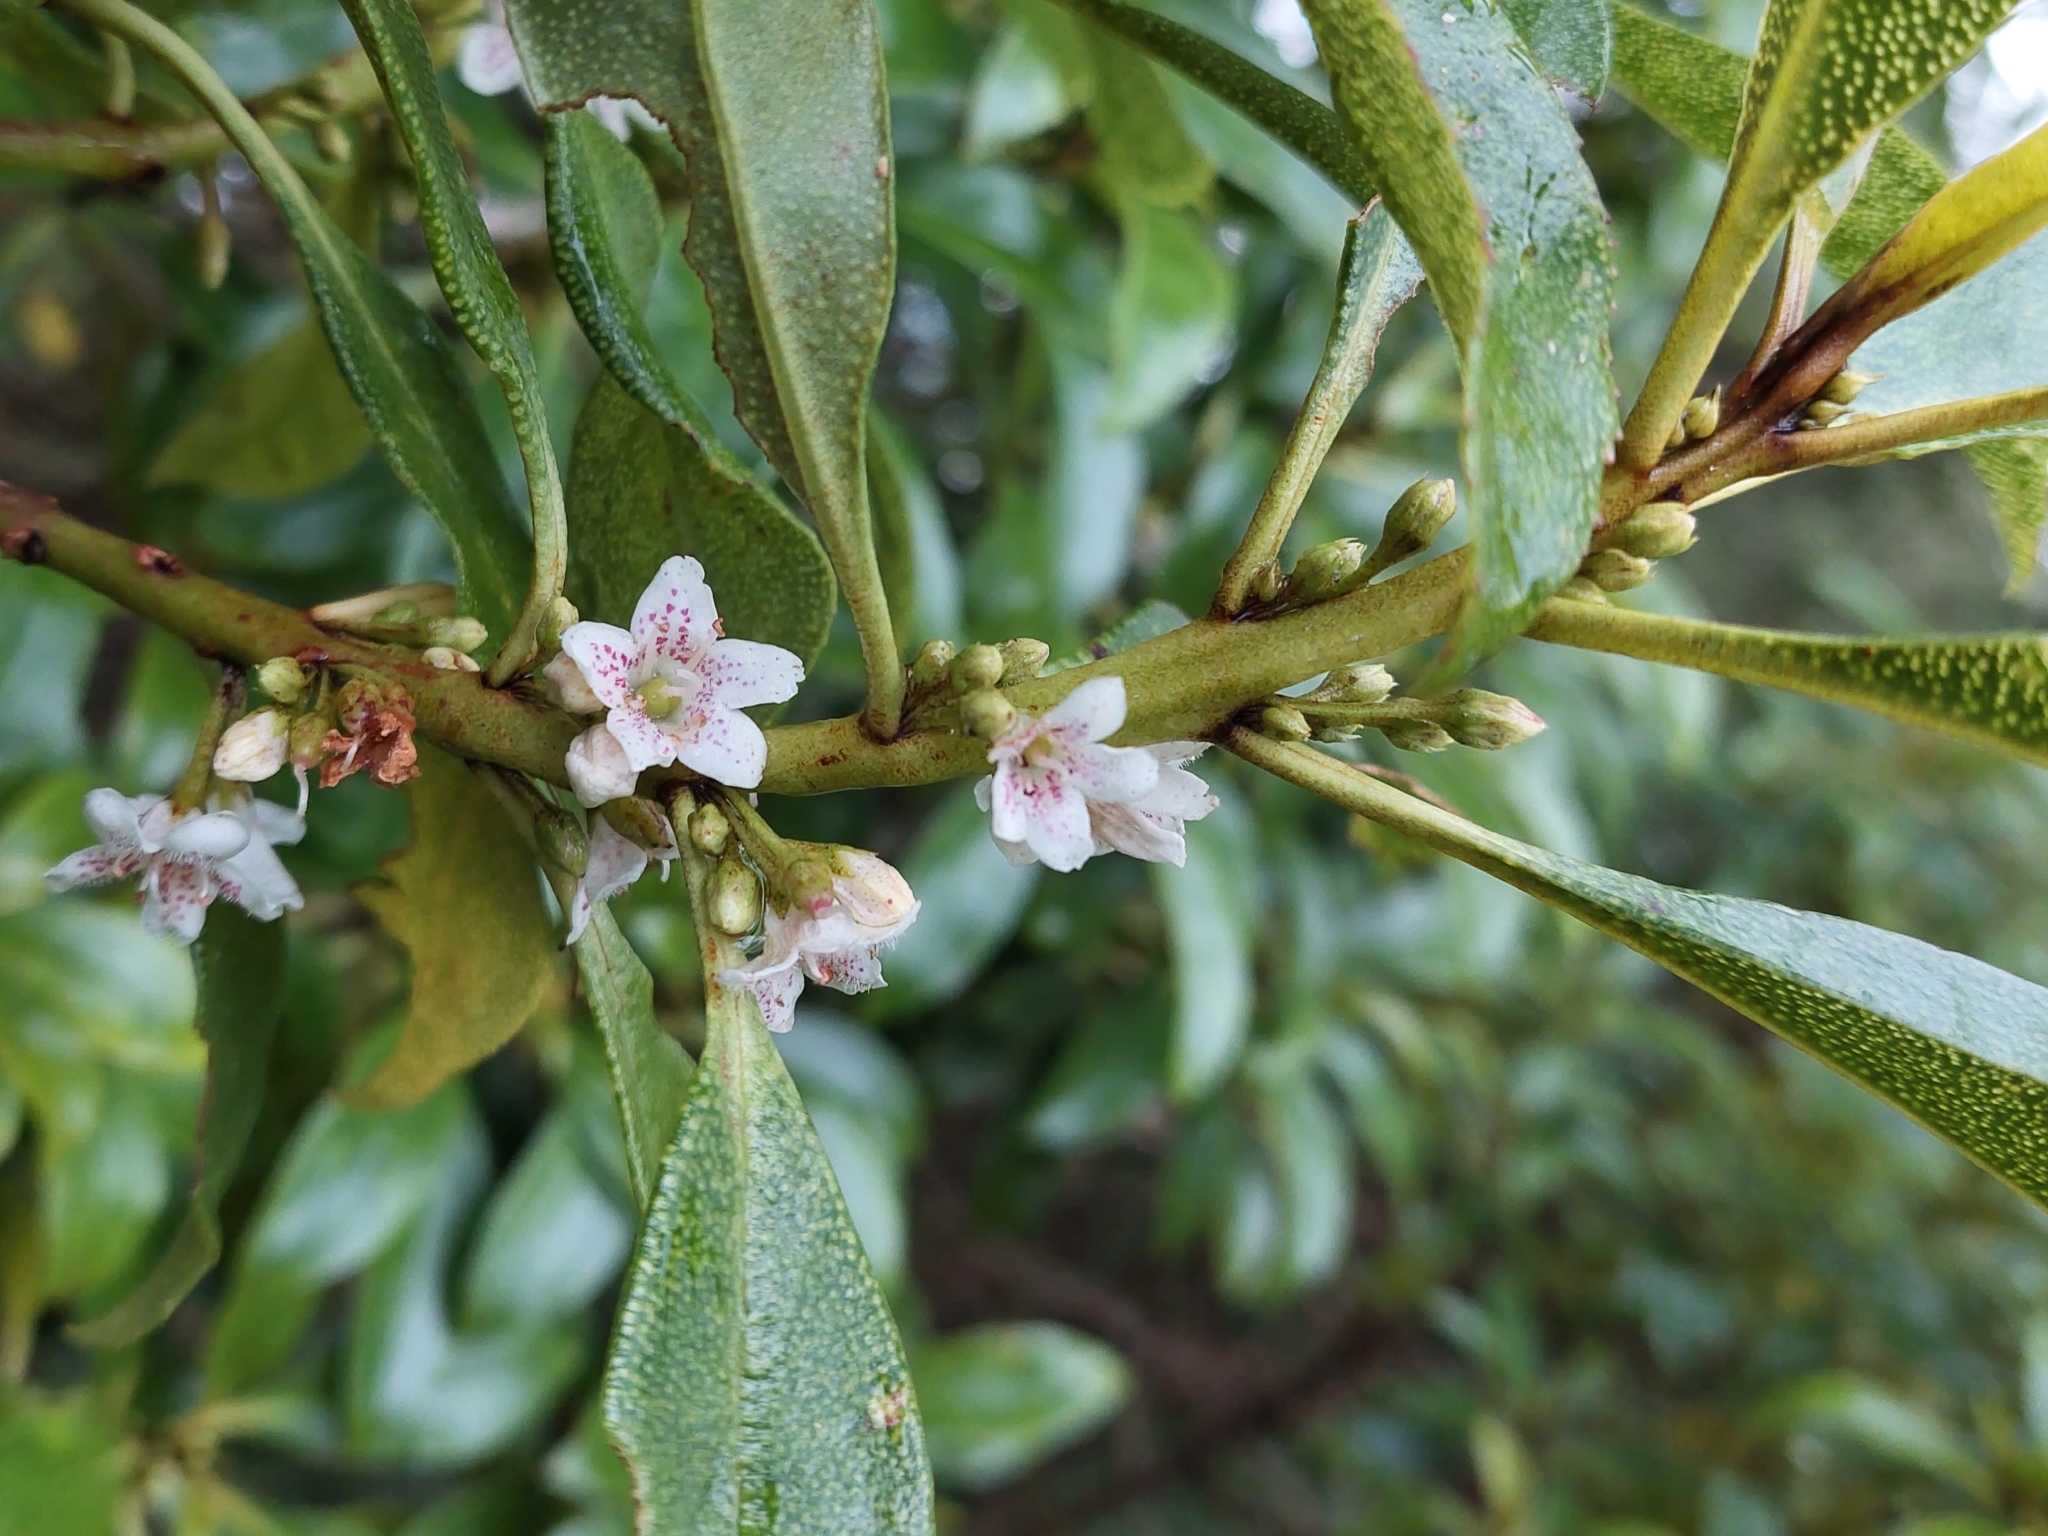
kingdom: Plantae
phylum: Tracheophyta
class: Magnoliopsida
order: Lamiales
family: Scrophulariaceae
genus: Myoporum
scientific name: Myoporum laetum
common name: Ngaio tree
